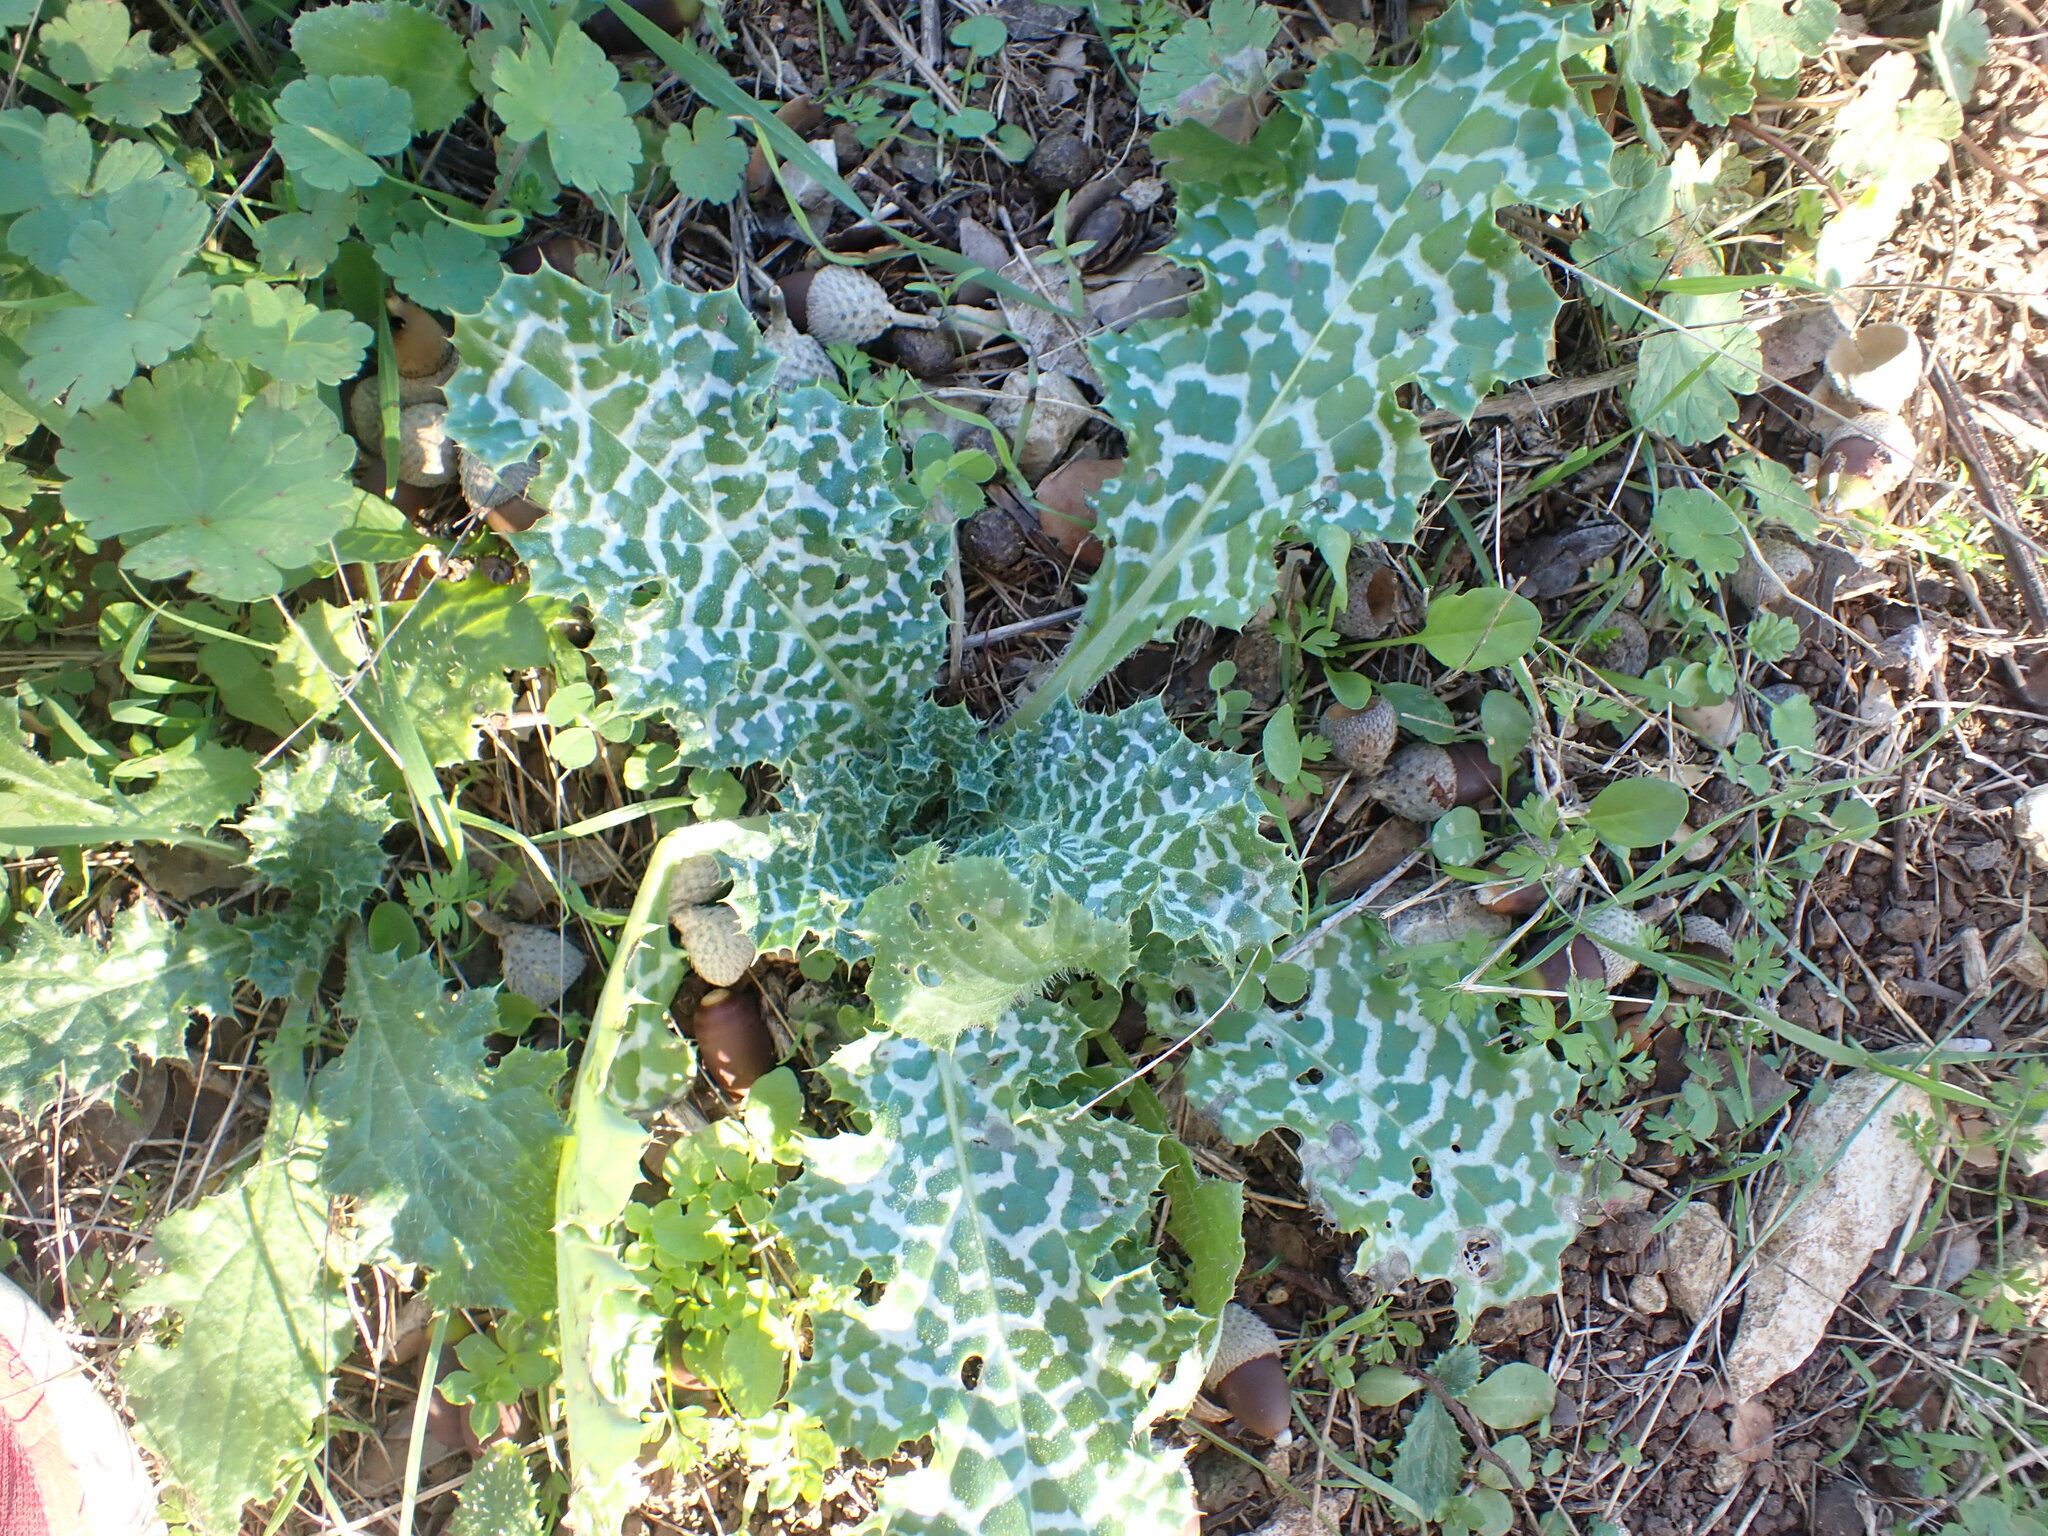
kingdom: Plantae
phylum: Tracheophyta
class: Magnoliopsida
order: Asterales
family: Asteraceae
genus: Silybum
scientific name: Silybum marianum
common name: Milk thistle
